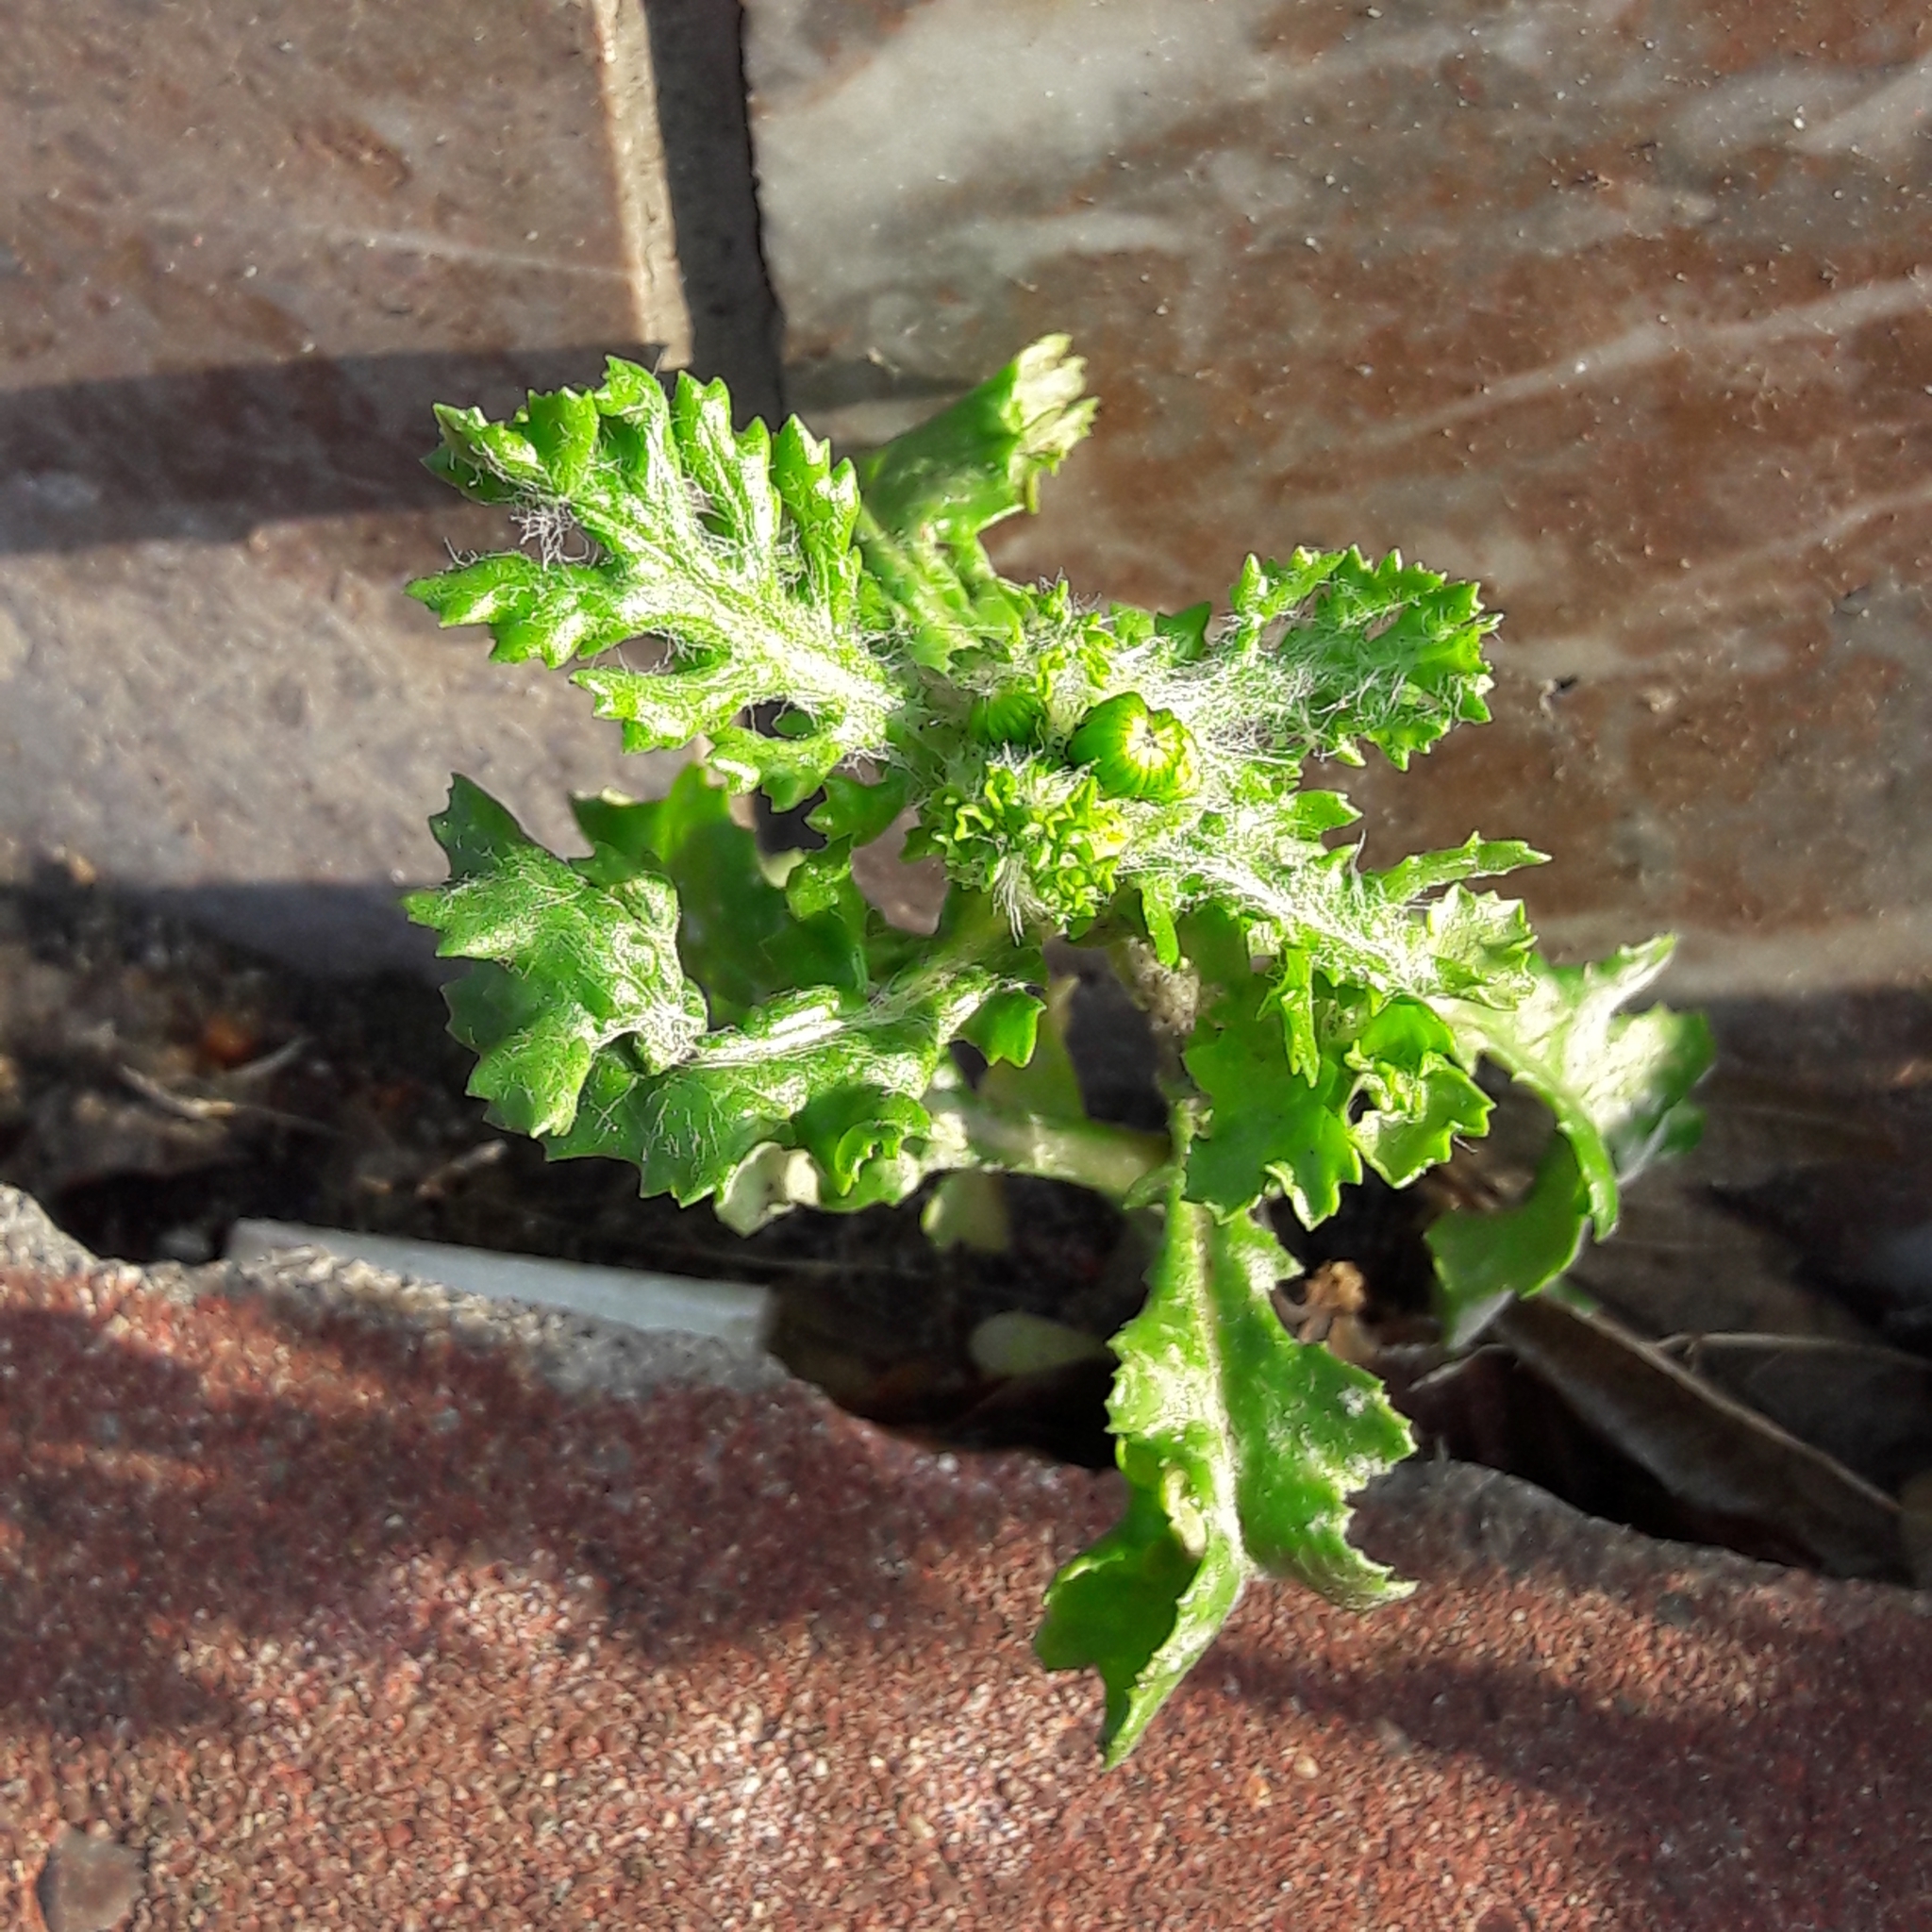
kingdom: Plantae
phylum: Tracheophyta
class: Magnoliopsida
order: Asterales
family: Asteraceae
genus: Senecio
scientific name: Senecio vulgaris
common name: Old-man-in-the-spring
